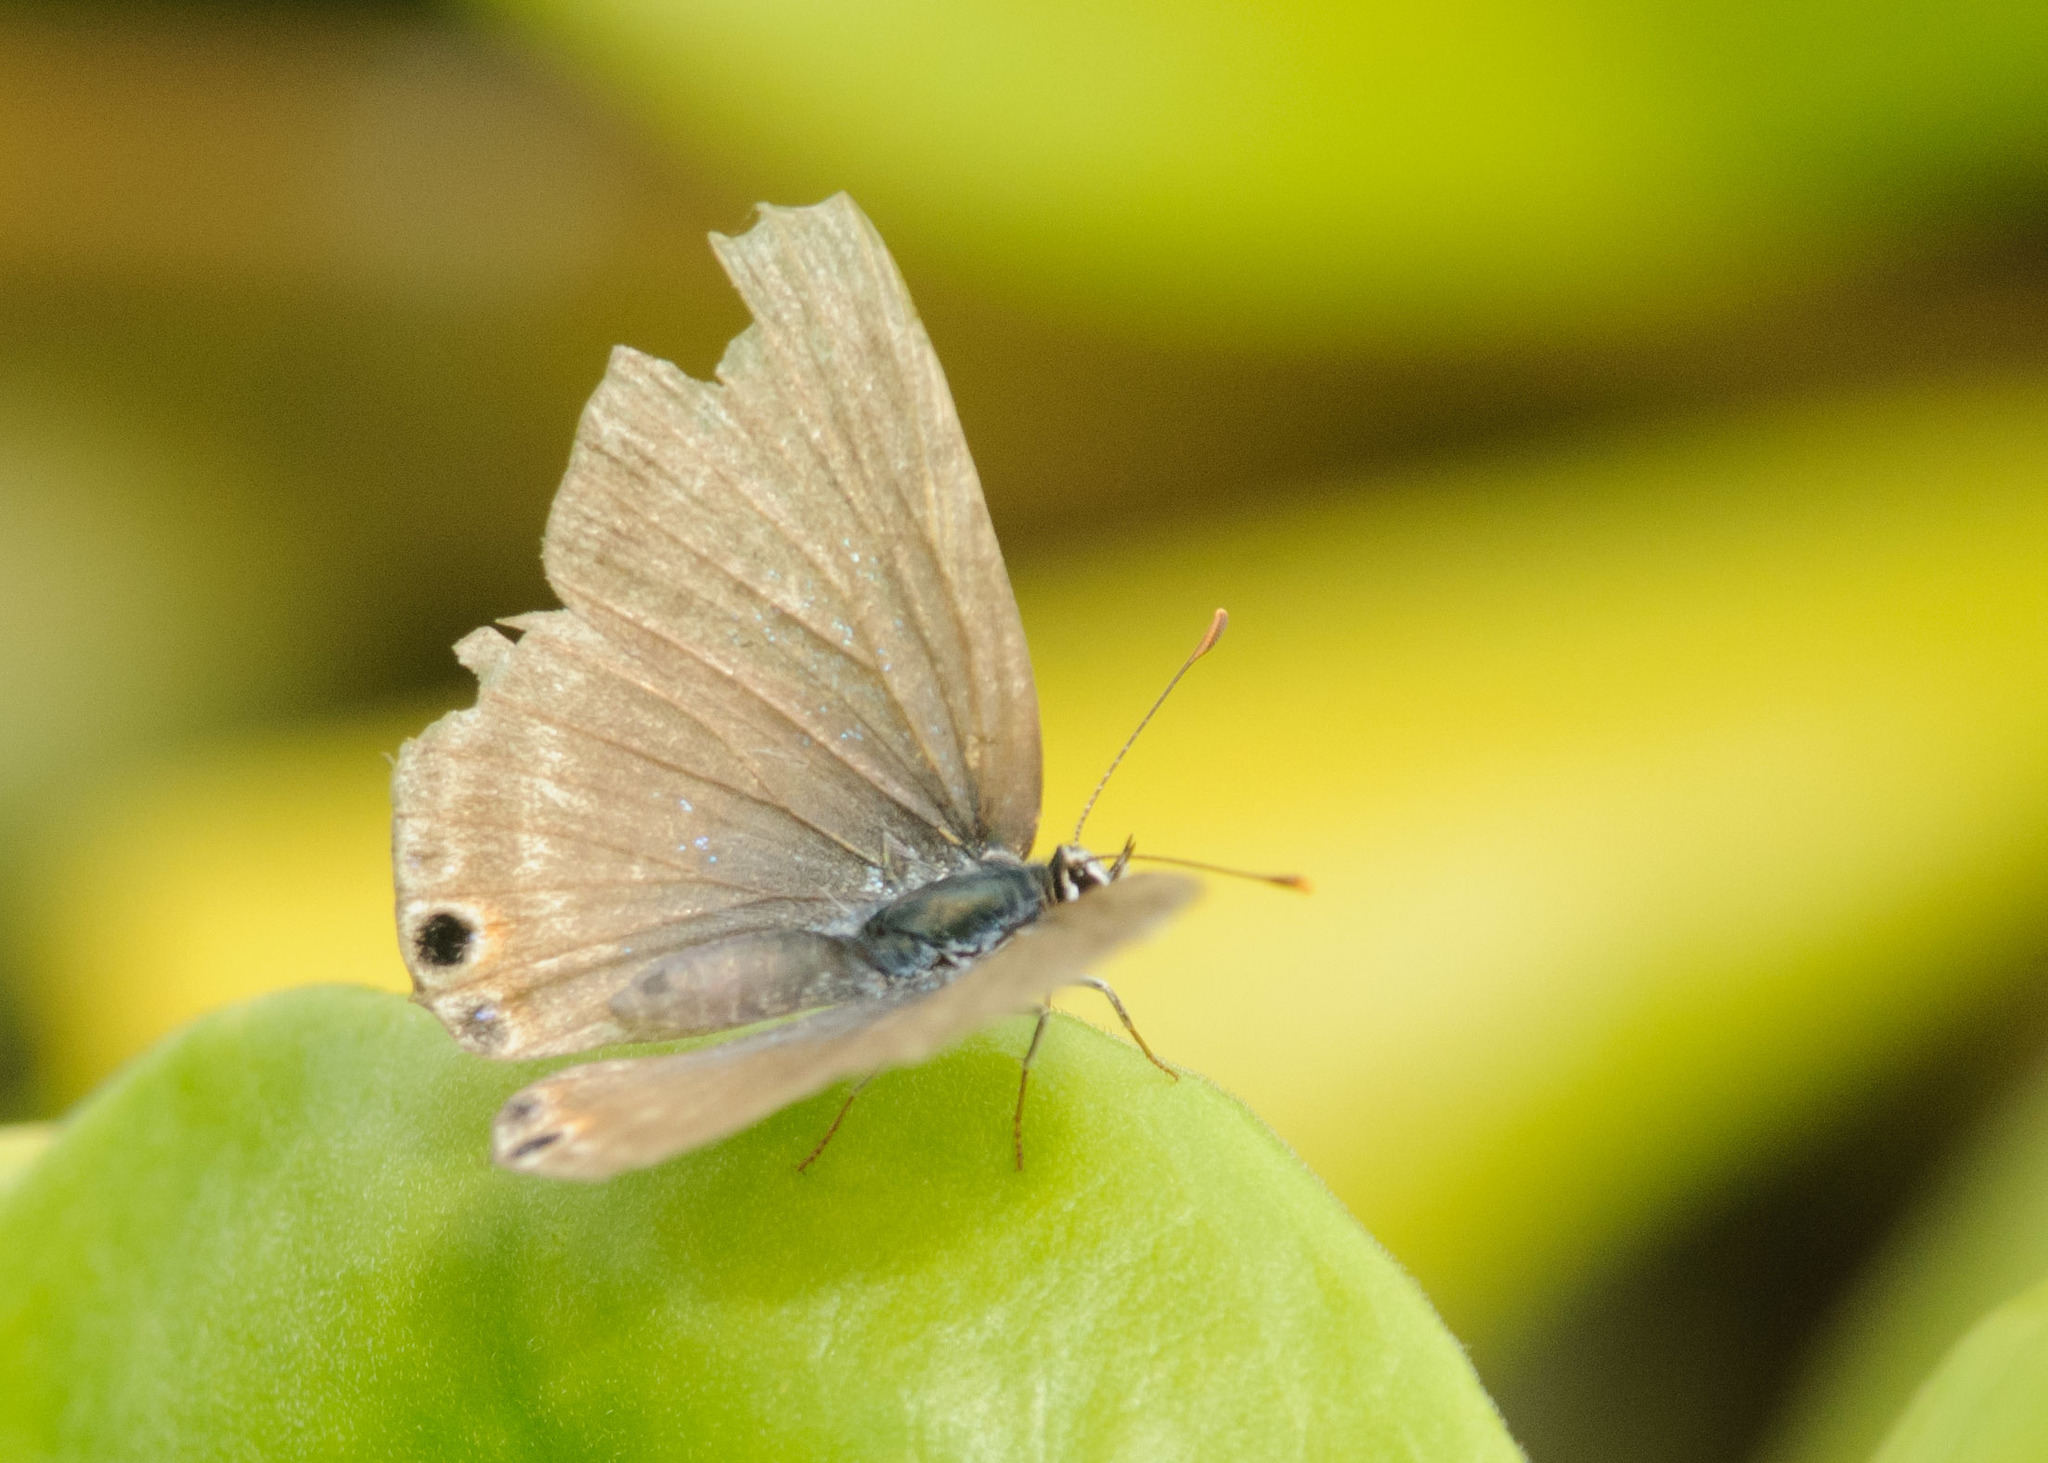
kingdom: Animalia
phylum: Arthropoda
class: Insecta
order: Lepidoptera
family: Lycaenidae
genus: Lampides
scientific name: Lampides boeticus
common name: Long-tailed blue
